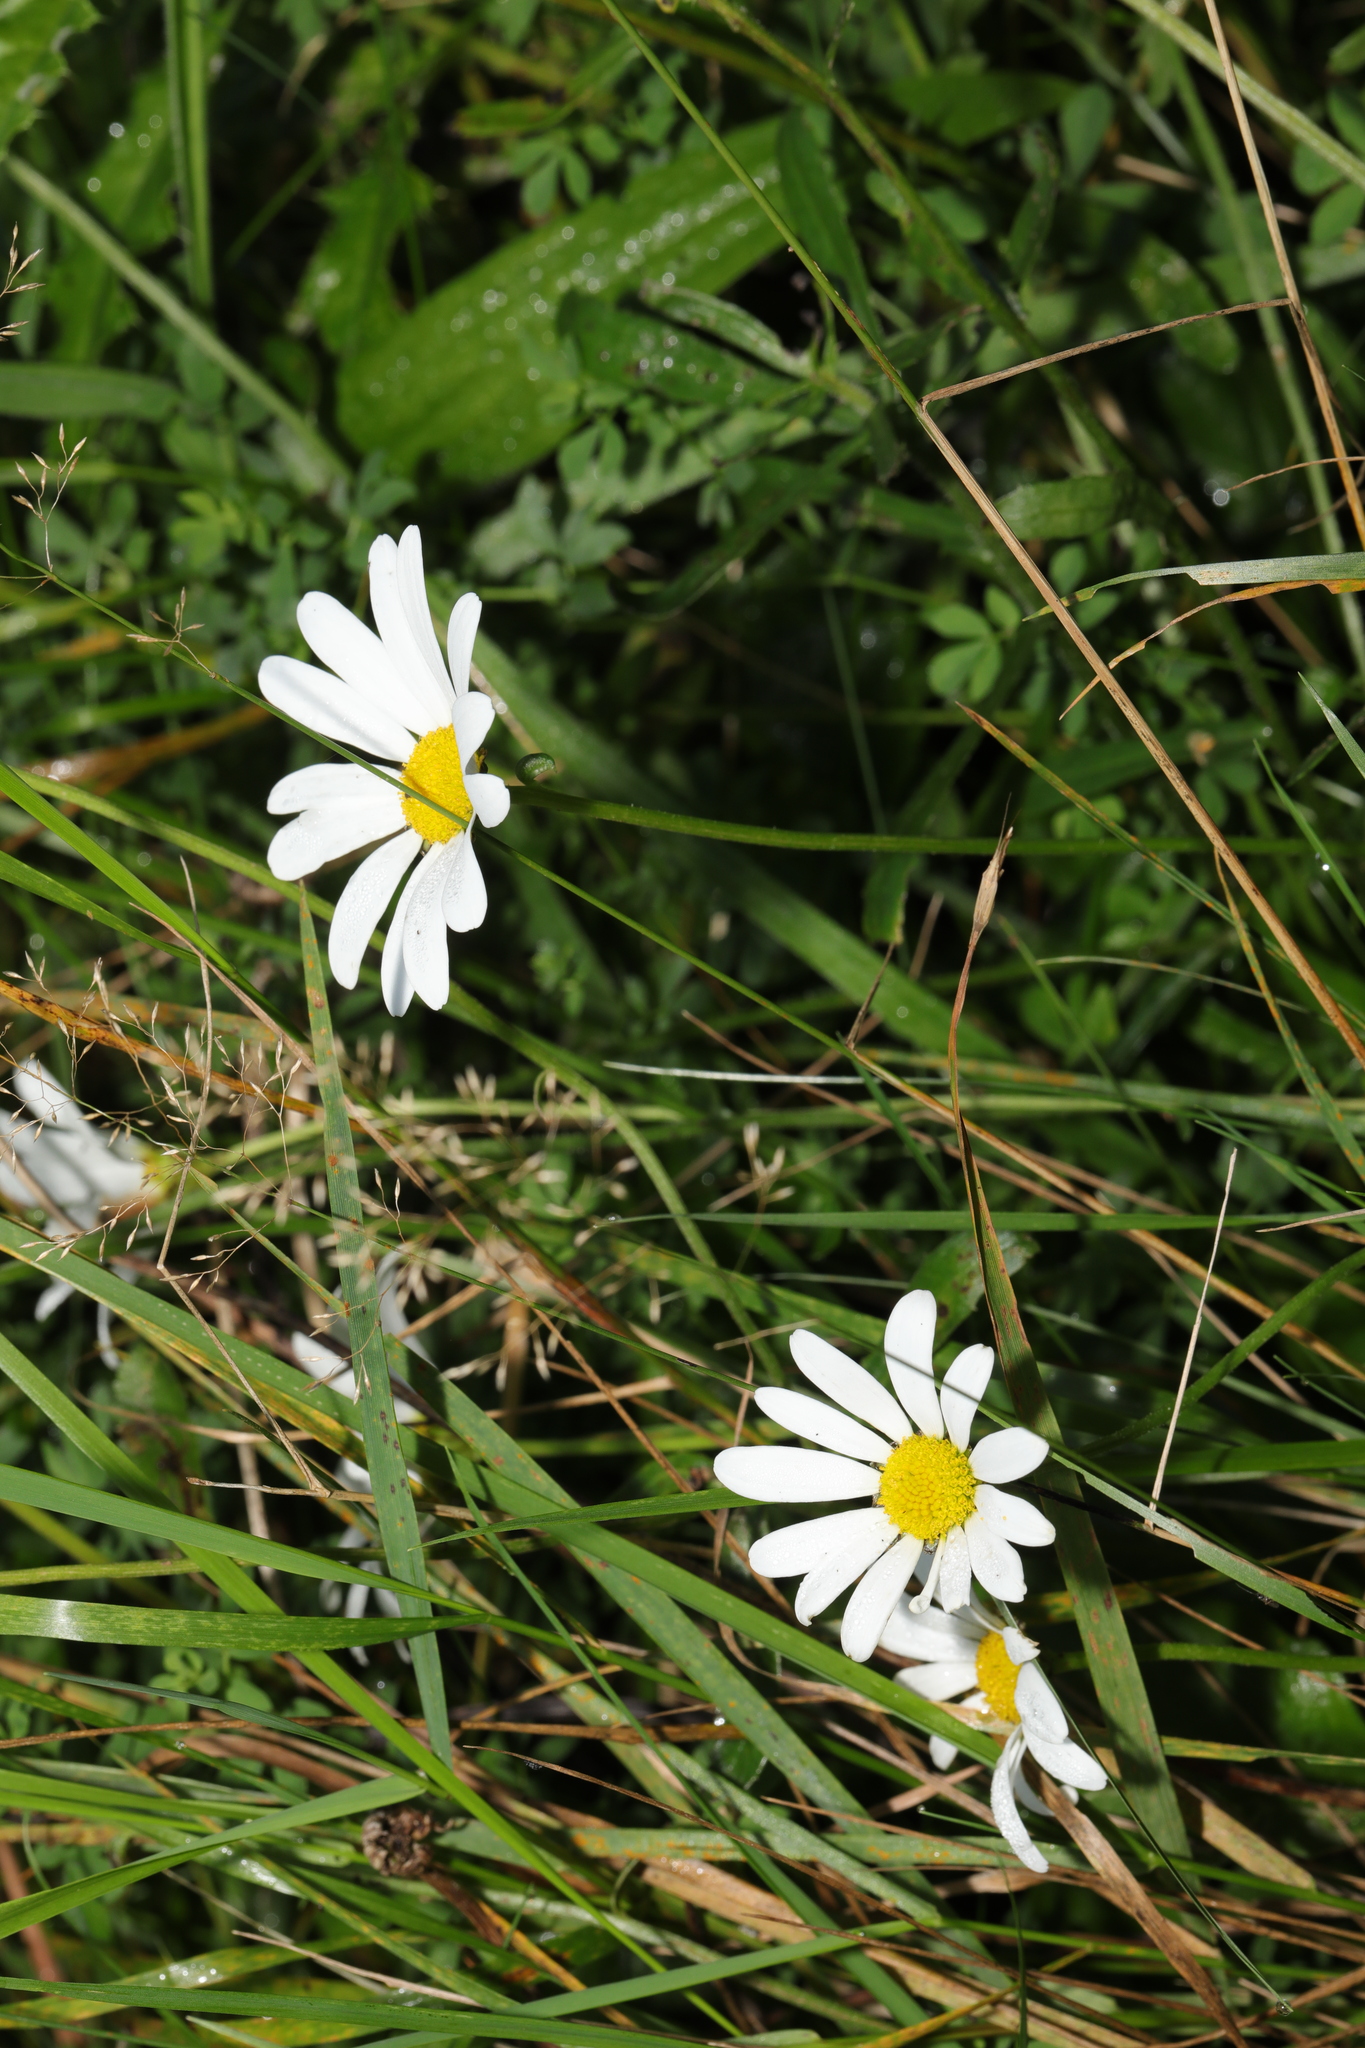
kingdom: Plantae
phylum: Tracheophyta
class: Magnoliopsida
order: Asterales
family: Asteraceae
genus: Leucanthemum
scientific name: Leucanthemum vulgare
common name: Oxeye daisy
